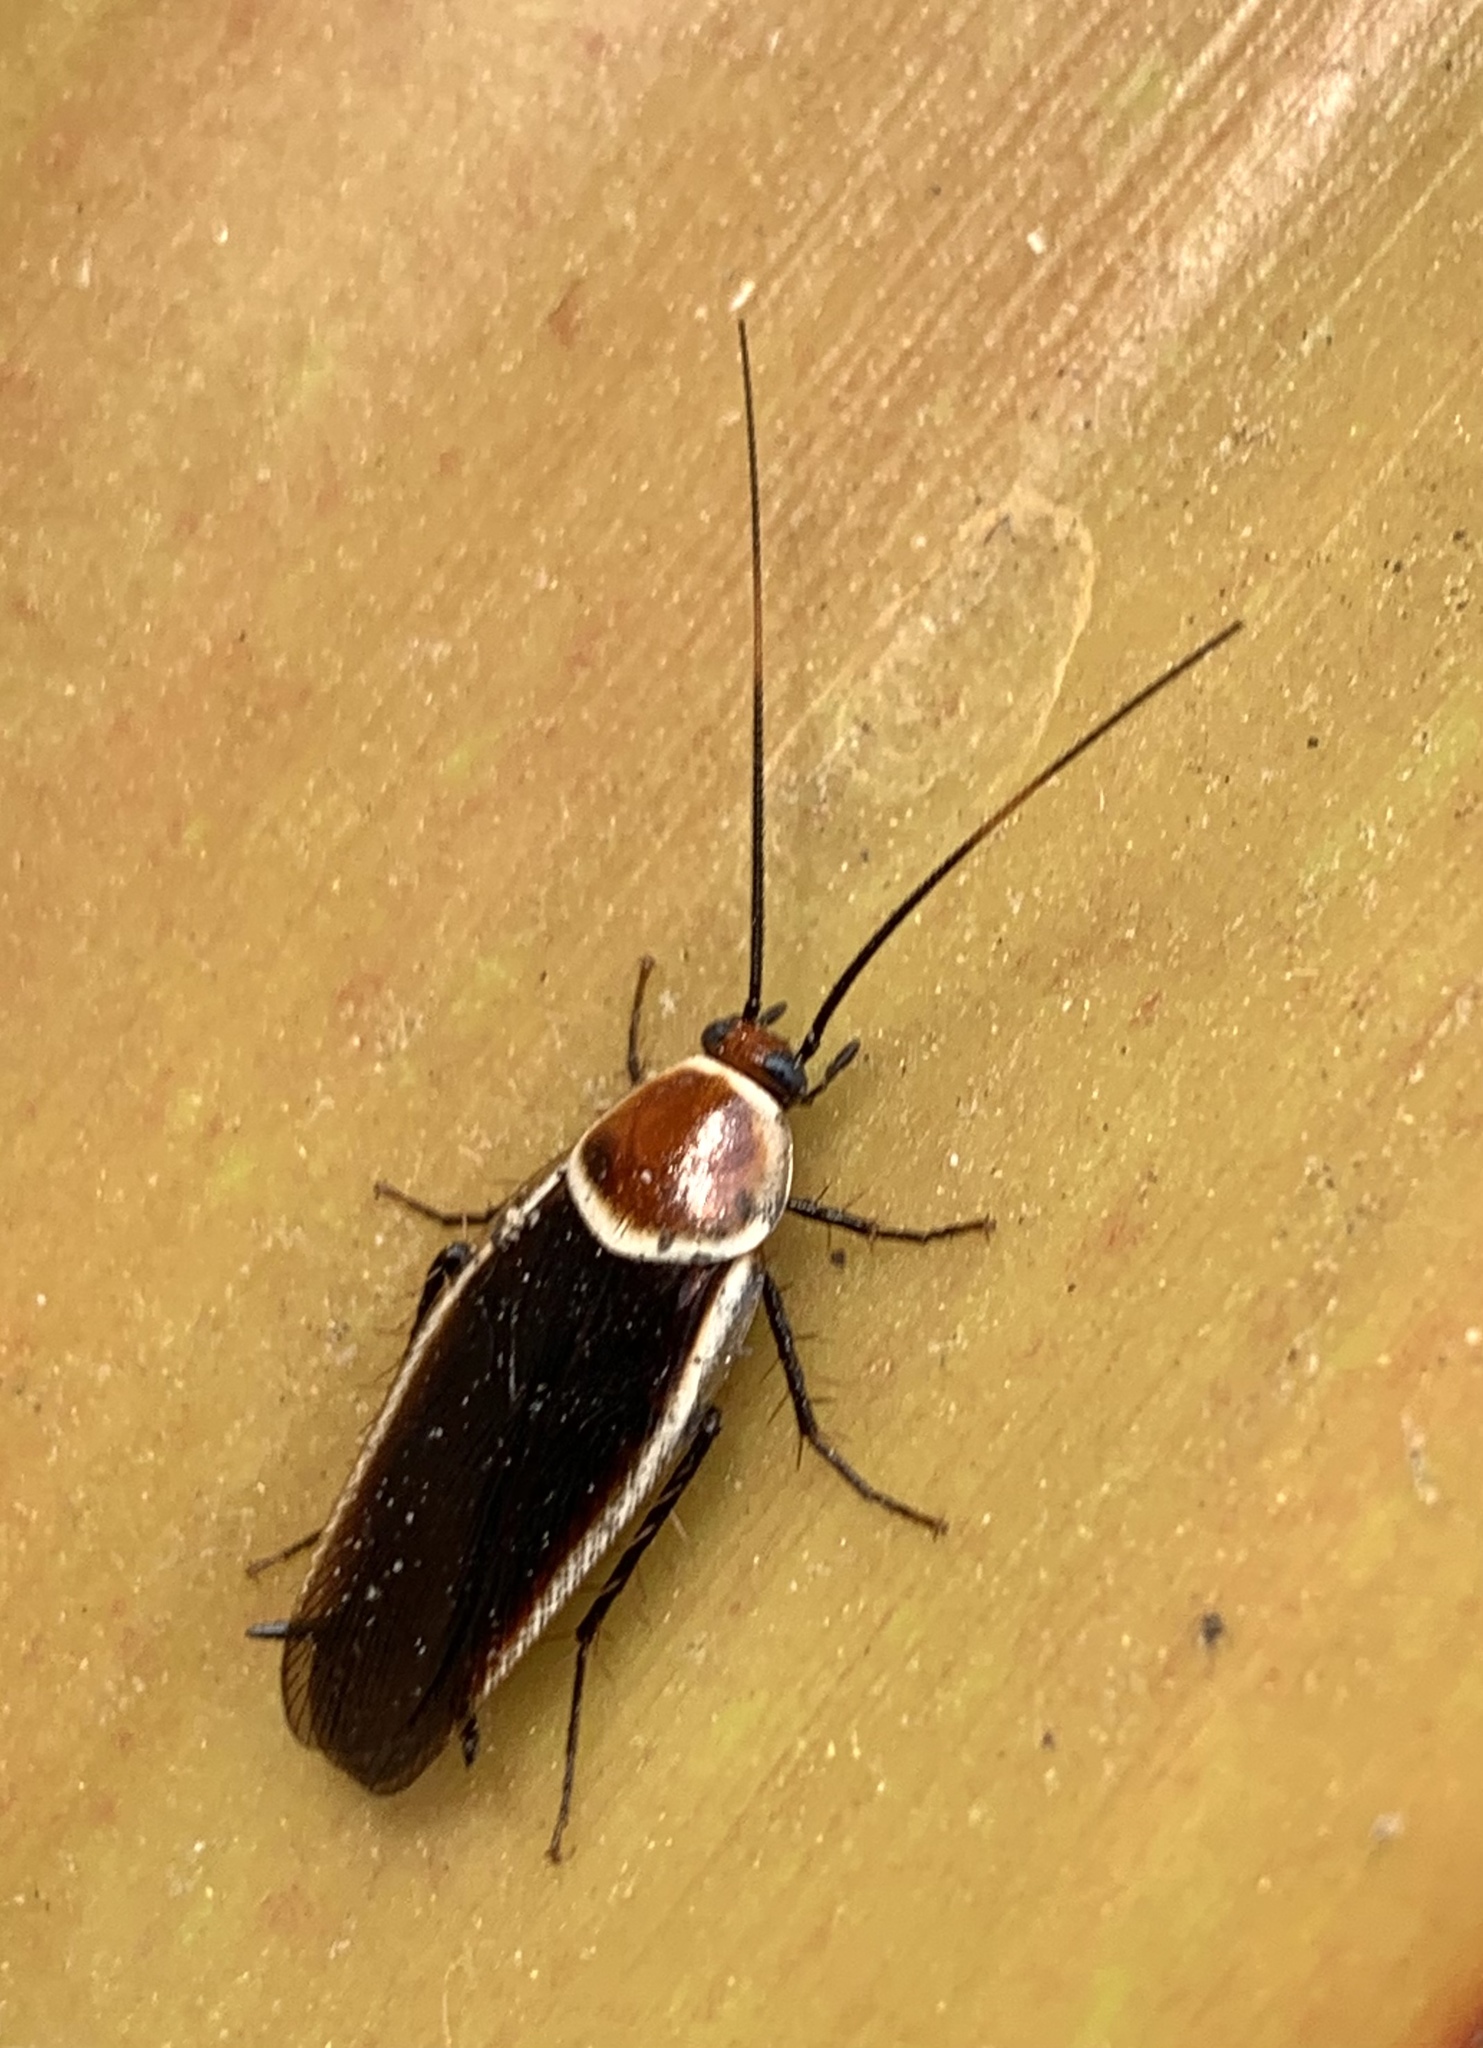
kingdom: Animalia
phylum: Arthropoda
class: Insecta
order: Blattodea
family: Ectobiidae
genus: Pseudomops
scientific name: Pseudomops septentrionalis
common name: Pale-bordered field cockroach
